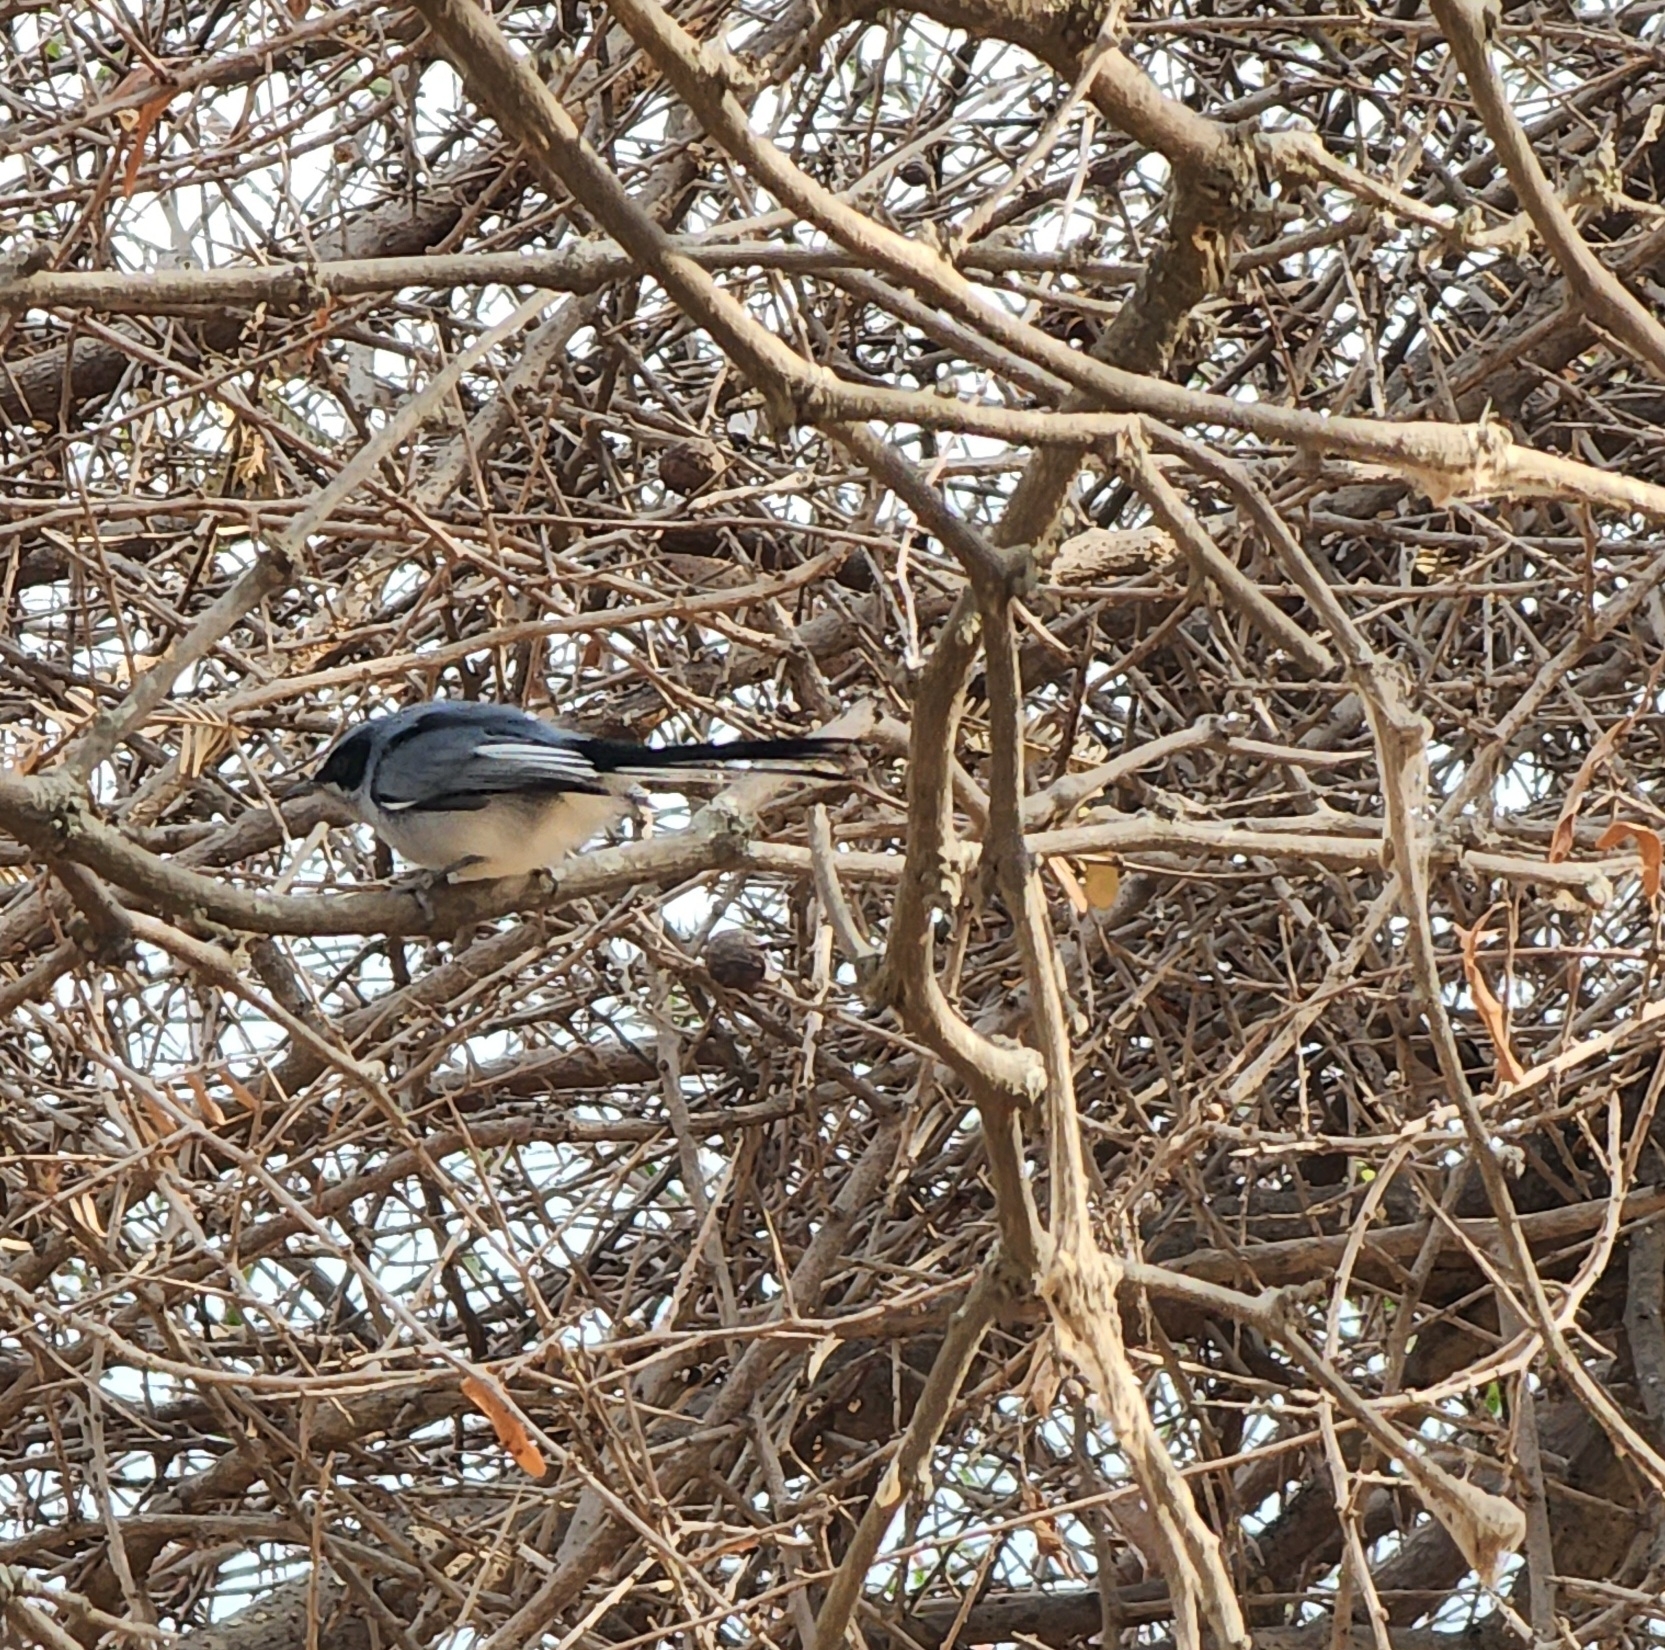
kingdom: Animalia
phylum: Chordata
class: Aves
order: Passeriformes
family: Polioptilidae
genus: Polioptila
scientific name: Polioptila dumicola
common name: Masked gnatcatcher
